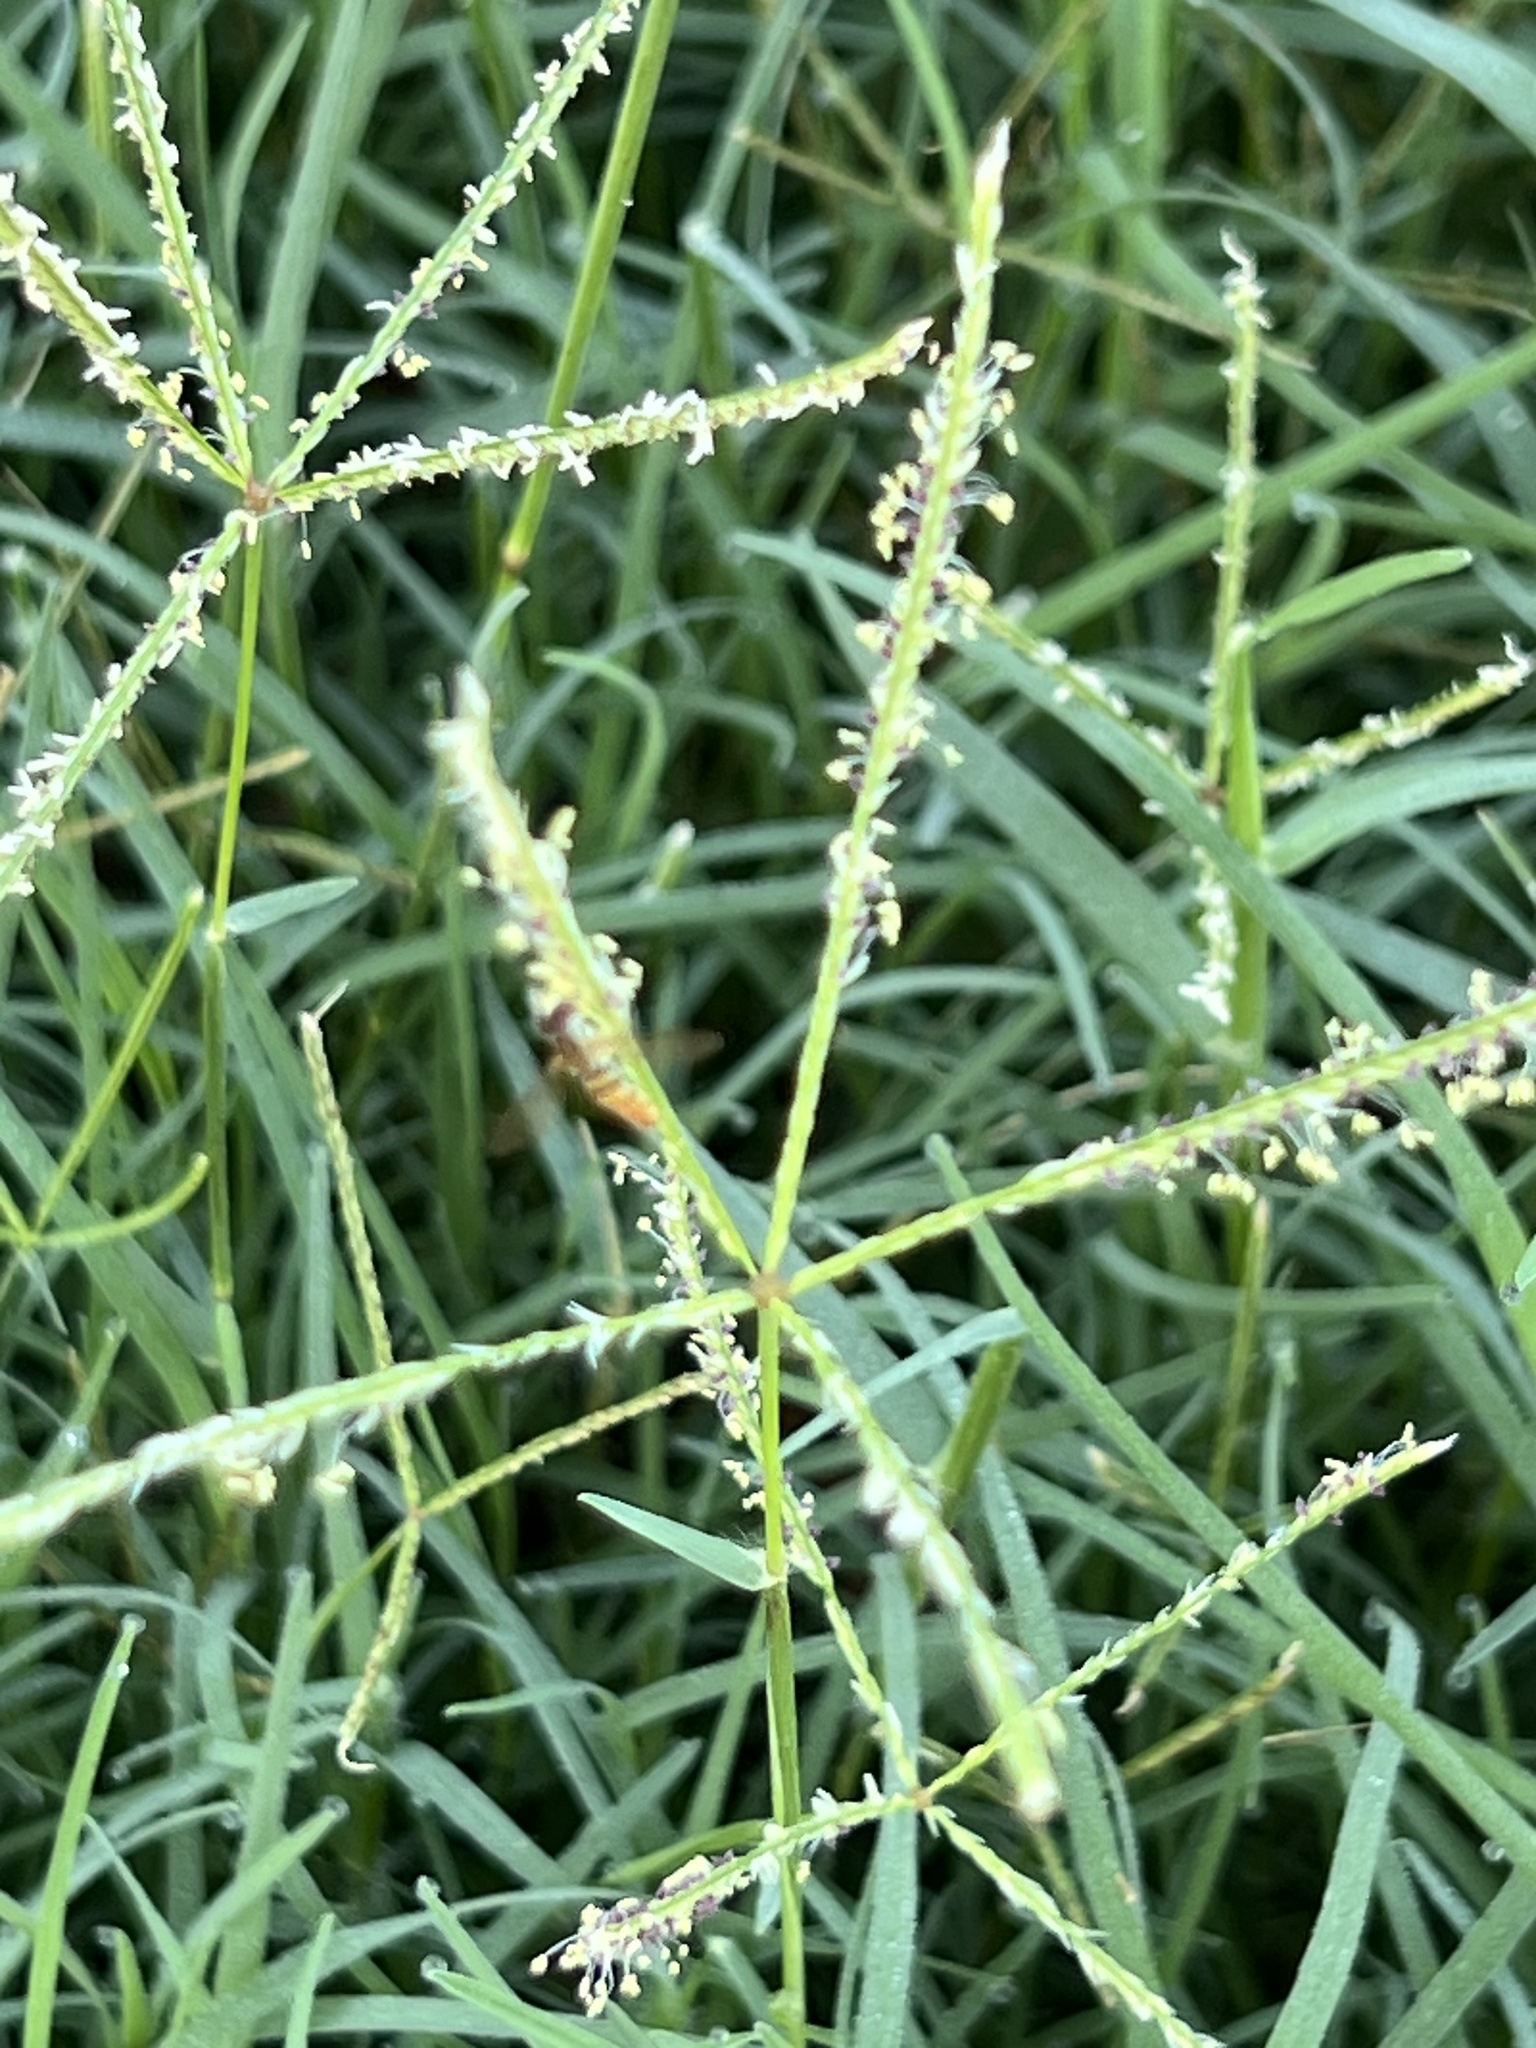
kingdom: Plantae
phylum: Tracheophyta
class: Liliopsida
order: Poales
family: Poaceae
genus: Cynodon
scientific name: Cynodon dactylon
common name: Bermuda grass
